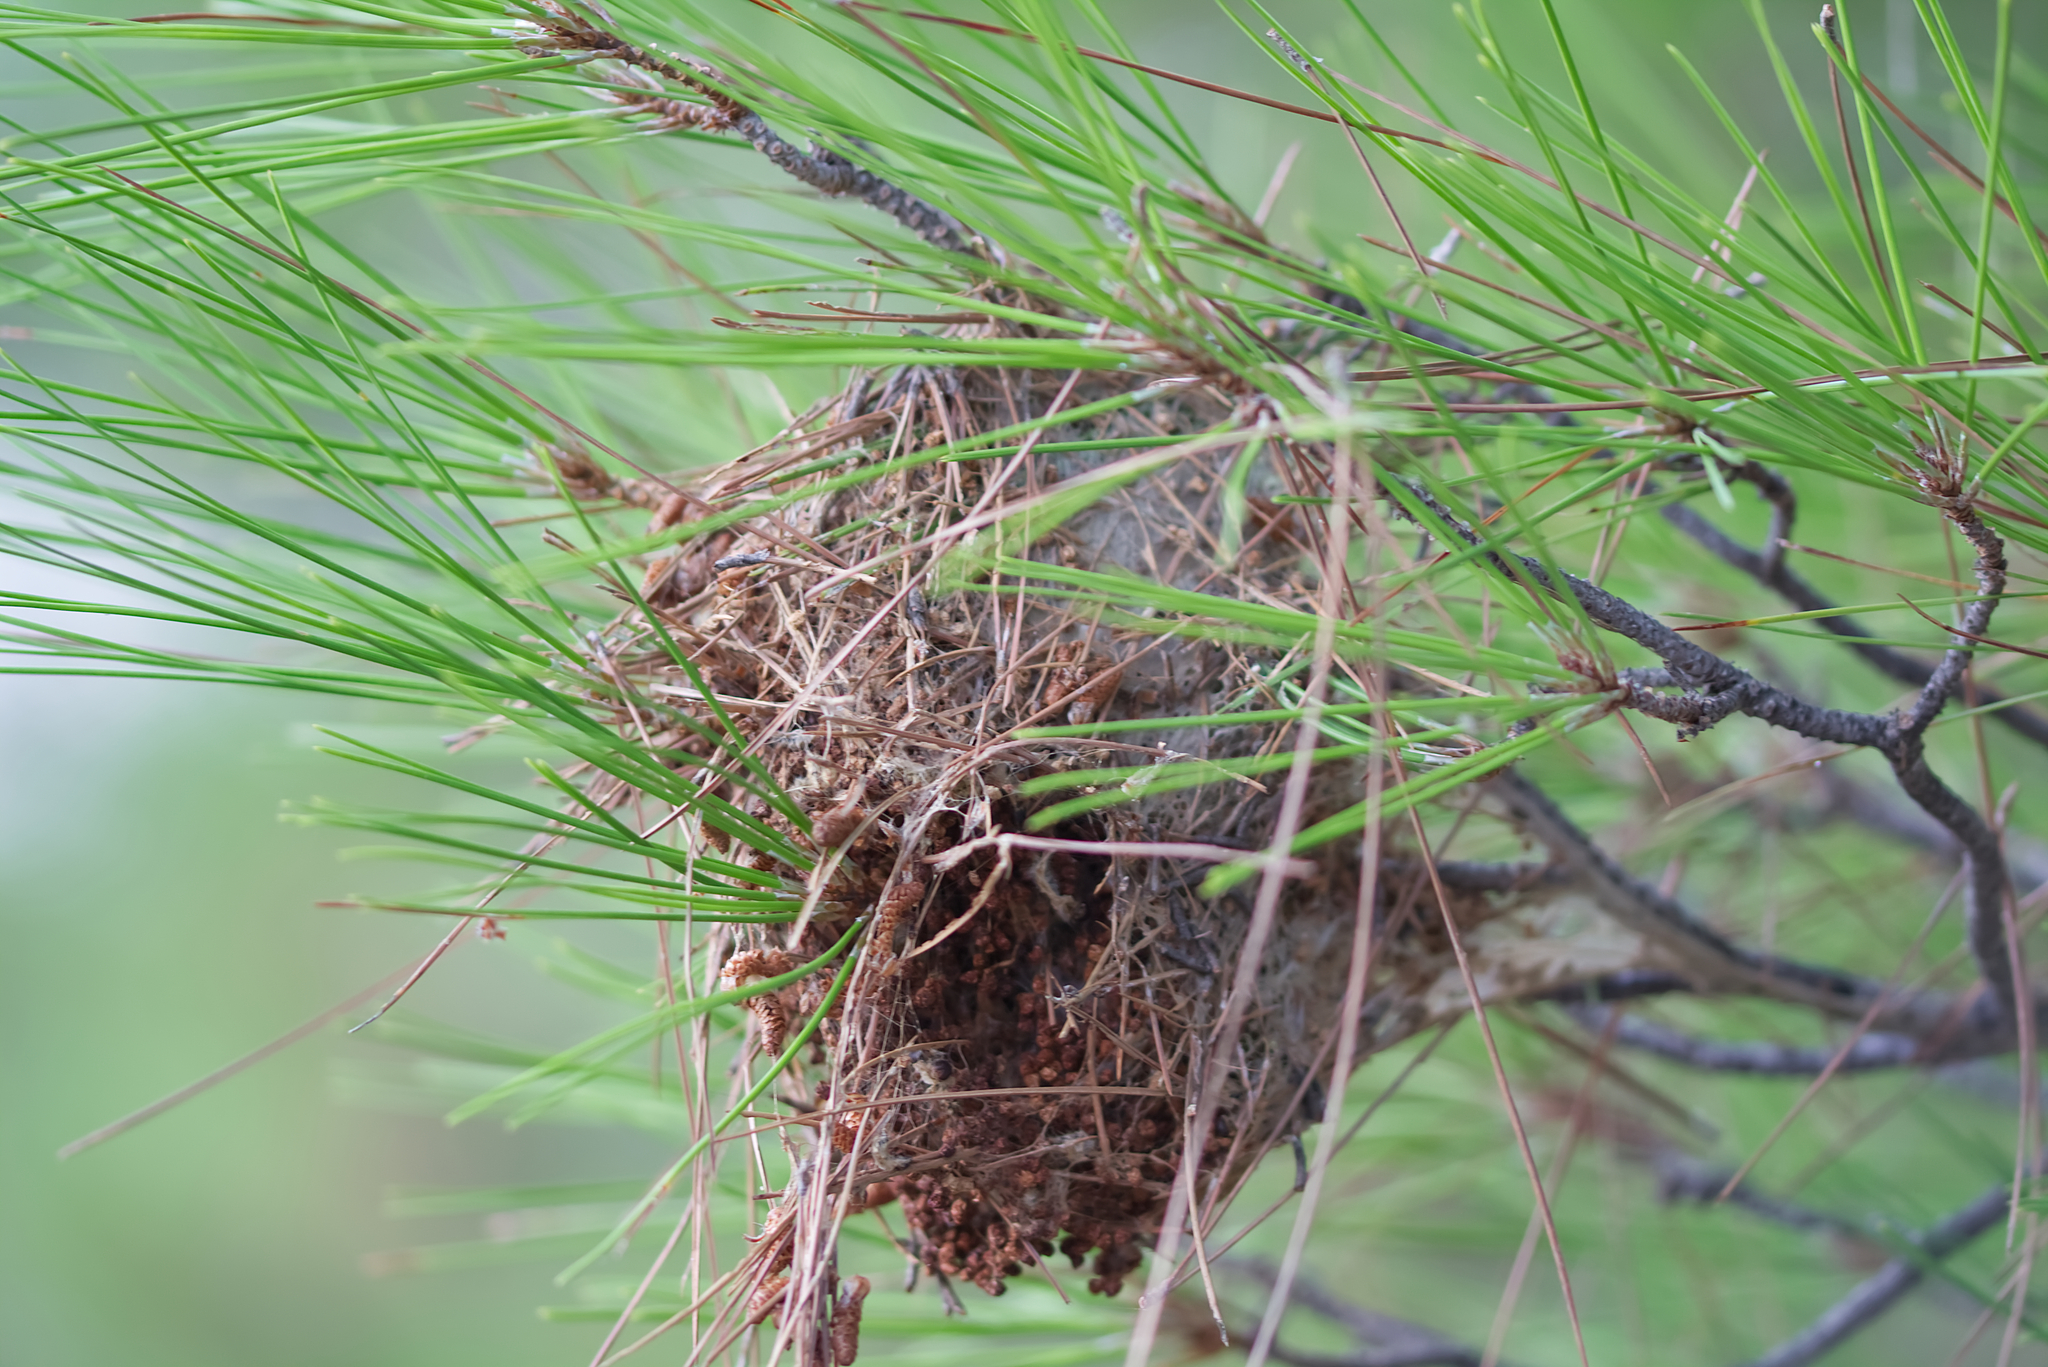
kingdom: Animalia
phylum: Arthropoda
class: Insecta
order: Lepidoptera
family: Notodontidae
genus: Thaumetopoea
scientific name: Thaumetopoea wilkinsoni
